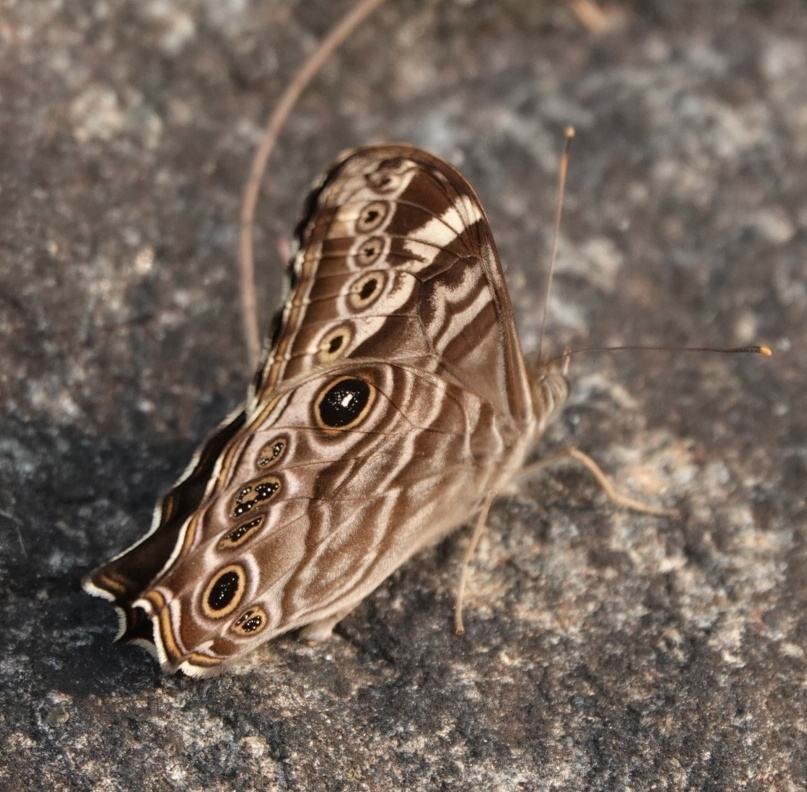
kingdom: Animalia
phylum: Arthropoda
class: Insecta
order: Lepidoptera
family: Nymphalidae
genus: Lethe
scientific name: Lethe rohria
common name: Common treebrown
